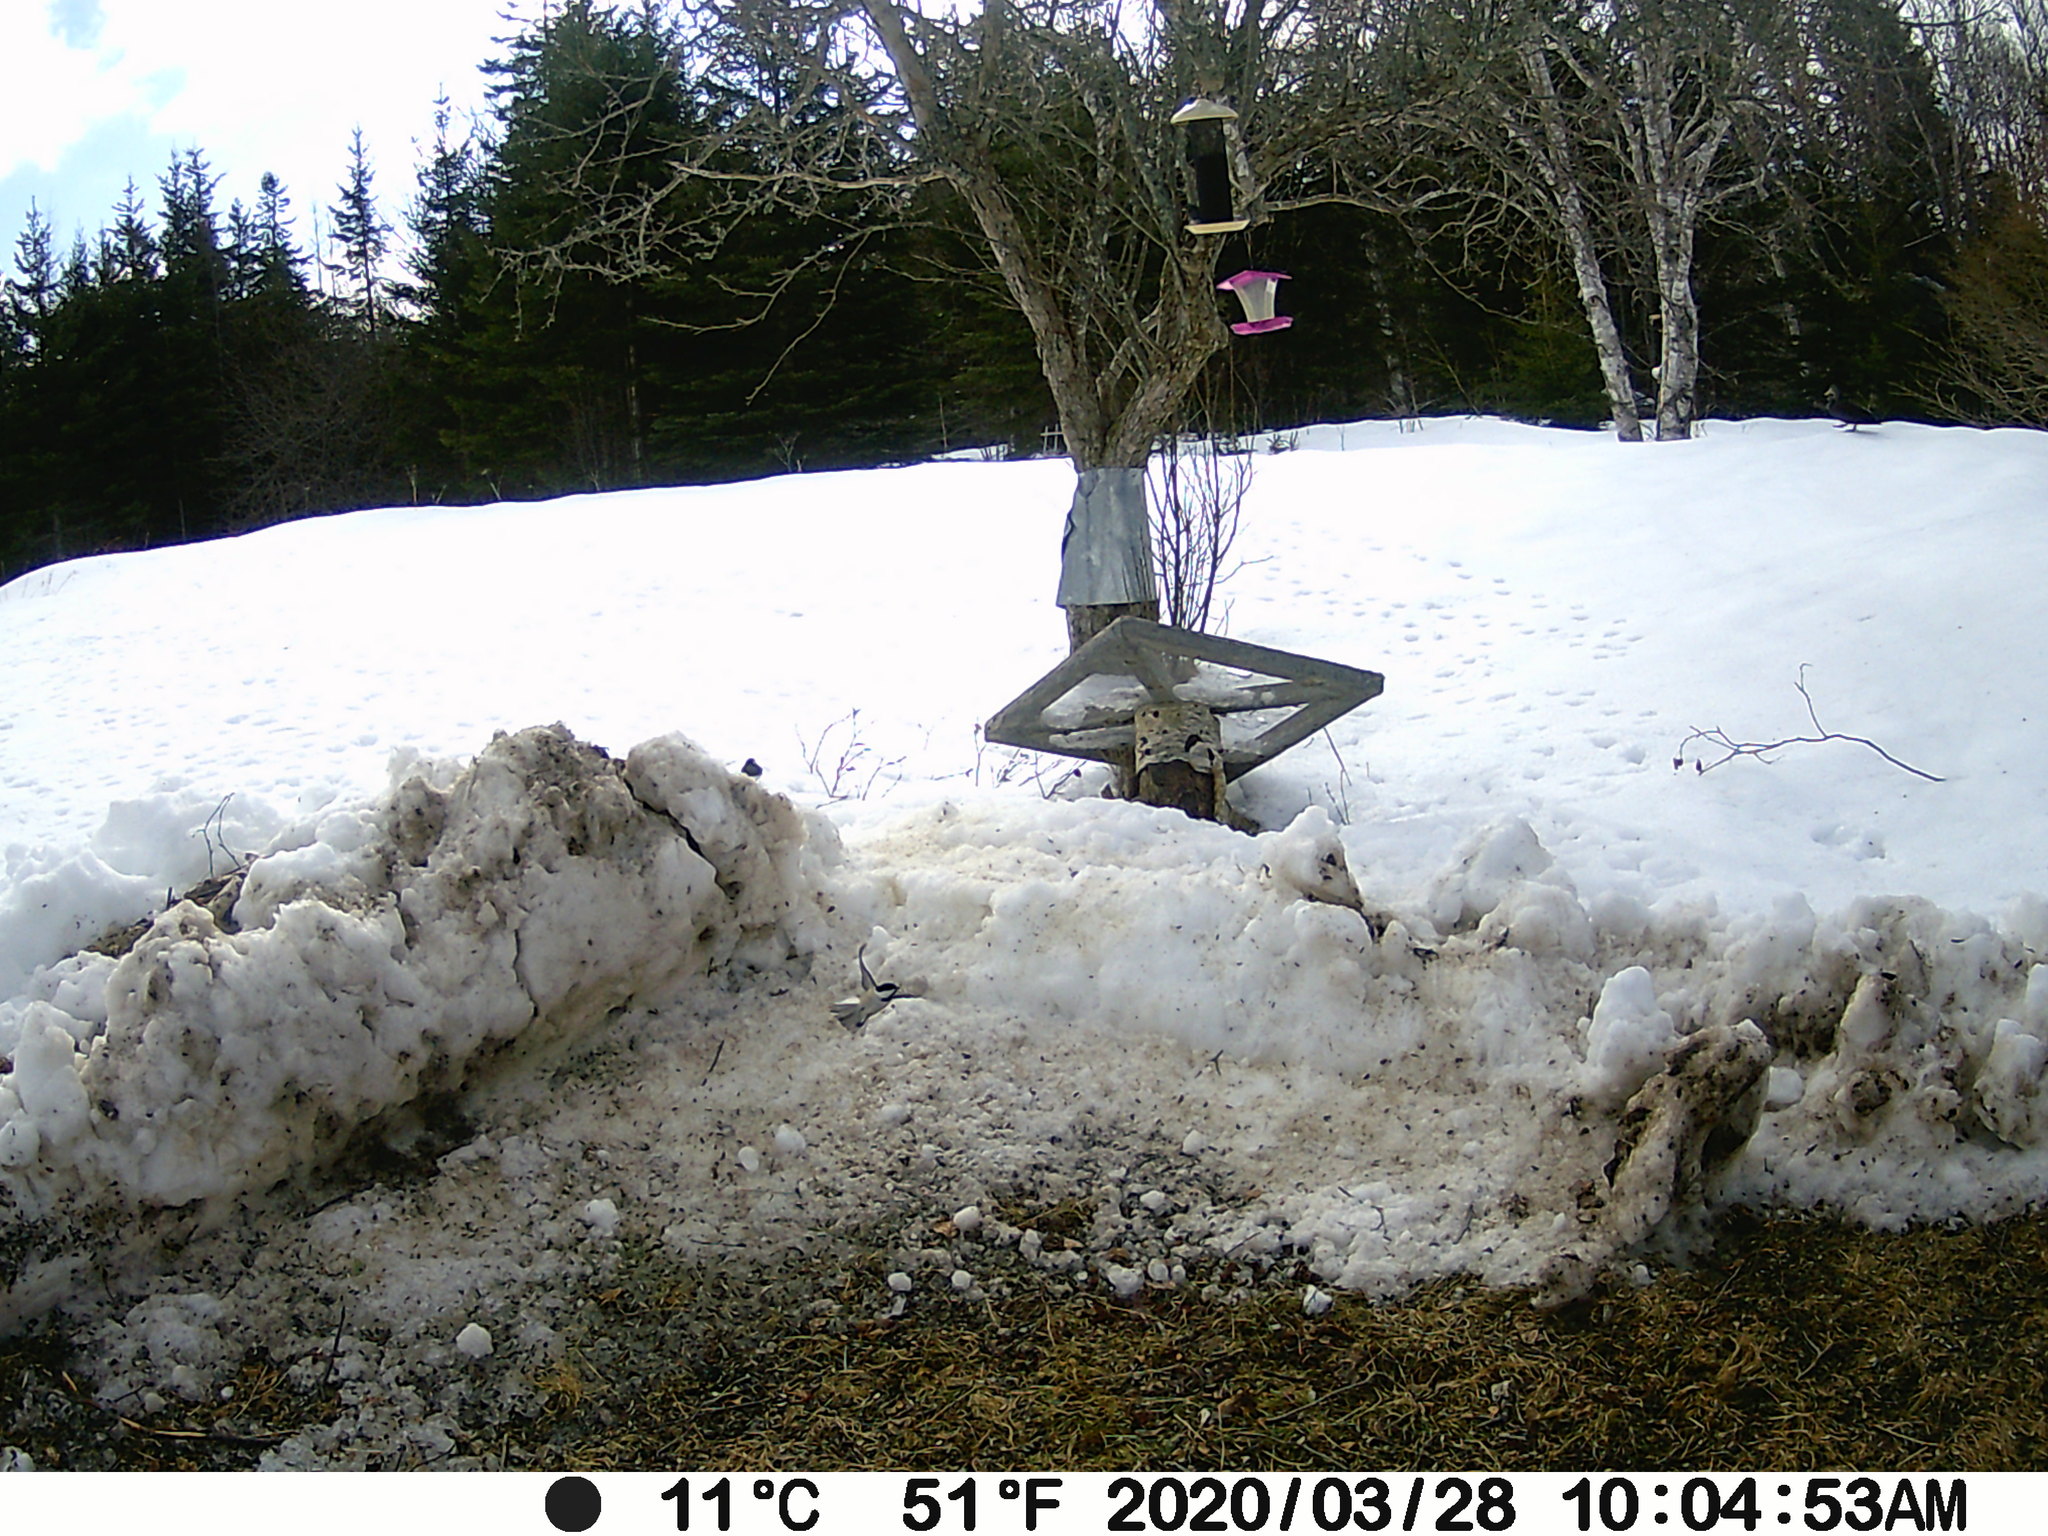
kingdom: Animalia
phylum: Chordata
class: Aves
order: Passeriformes
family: Paridae
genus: Poecile
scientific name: Poecile atricapillus
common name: Black-capped chickadee
